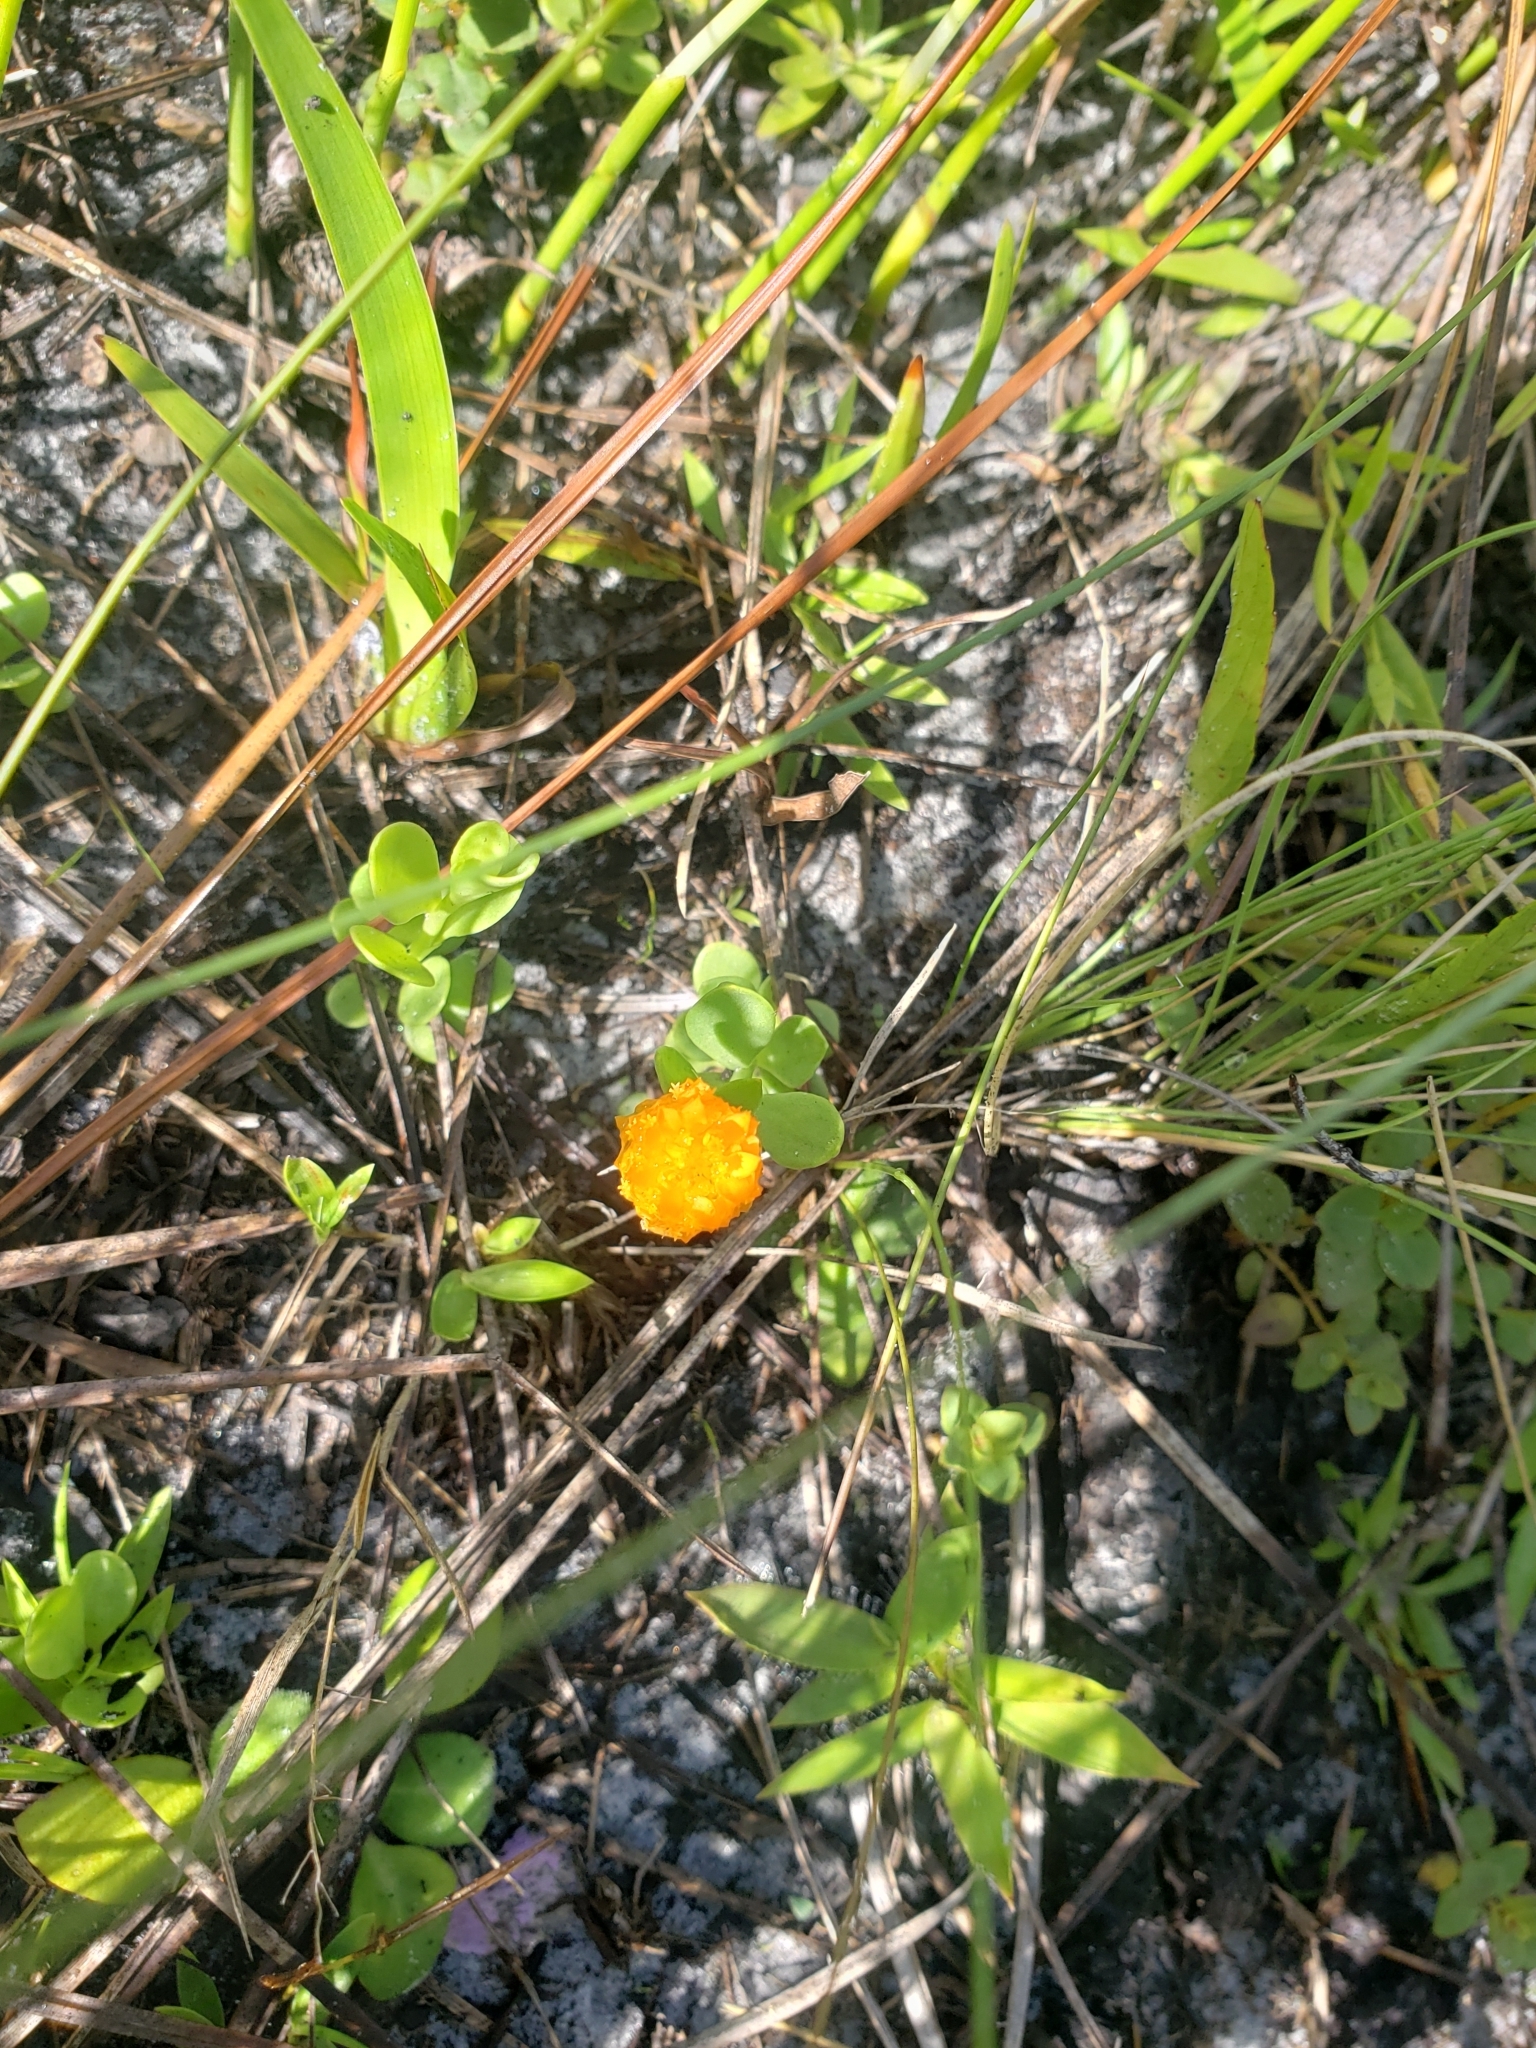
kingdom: Plantae
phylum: Tracheophyta
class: Magnoliopsida
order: Fabales
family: Polygalaceae
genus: Polygala
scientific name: Polygala lutea
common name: Orange milkwort
